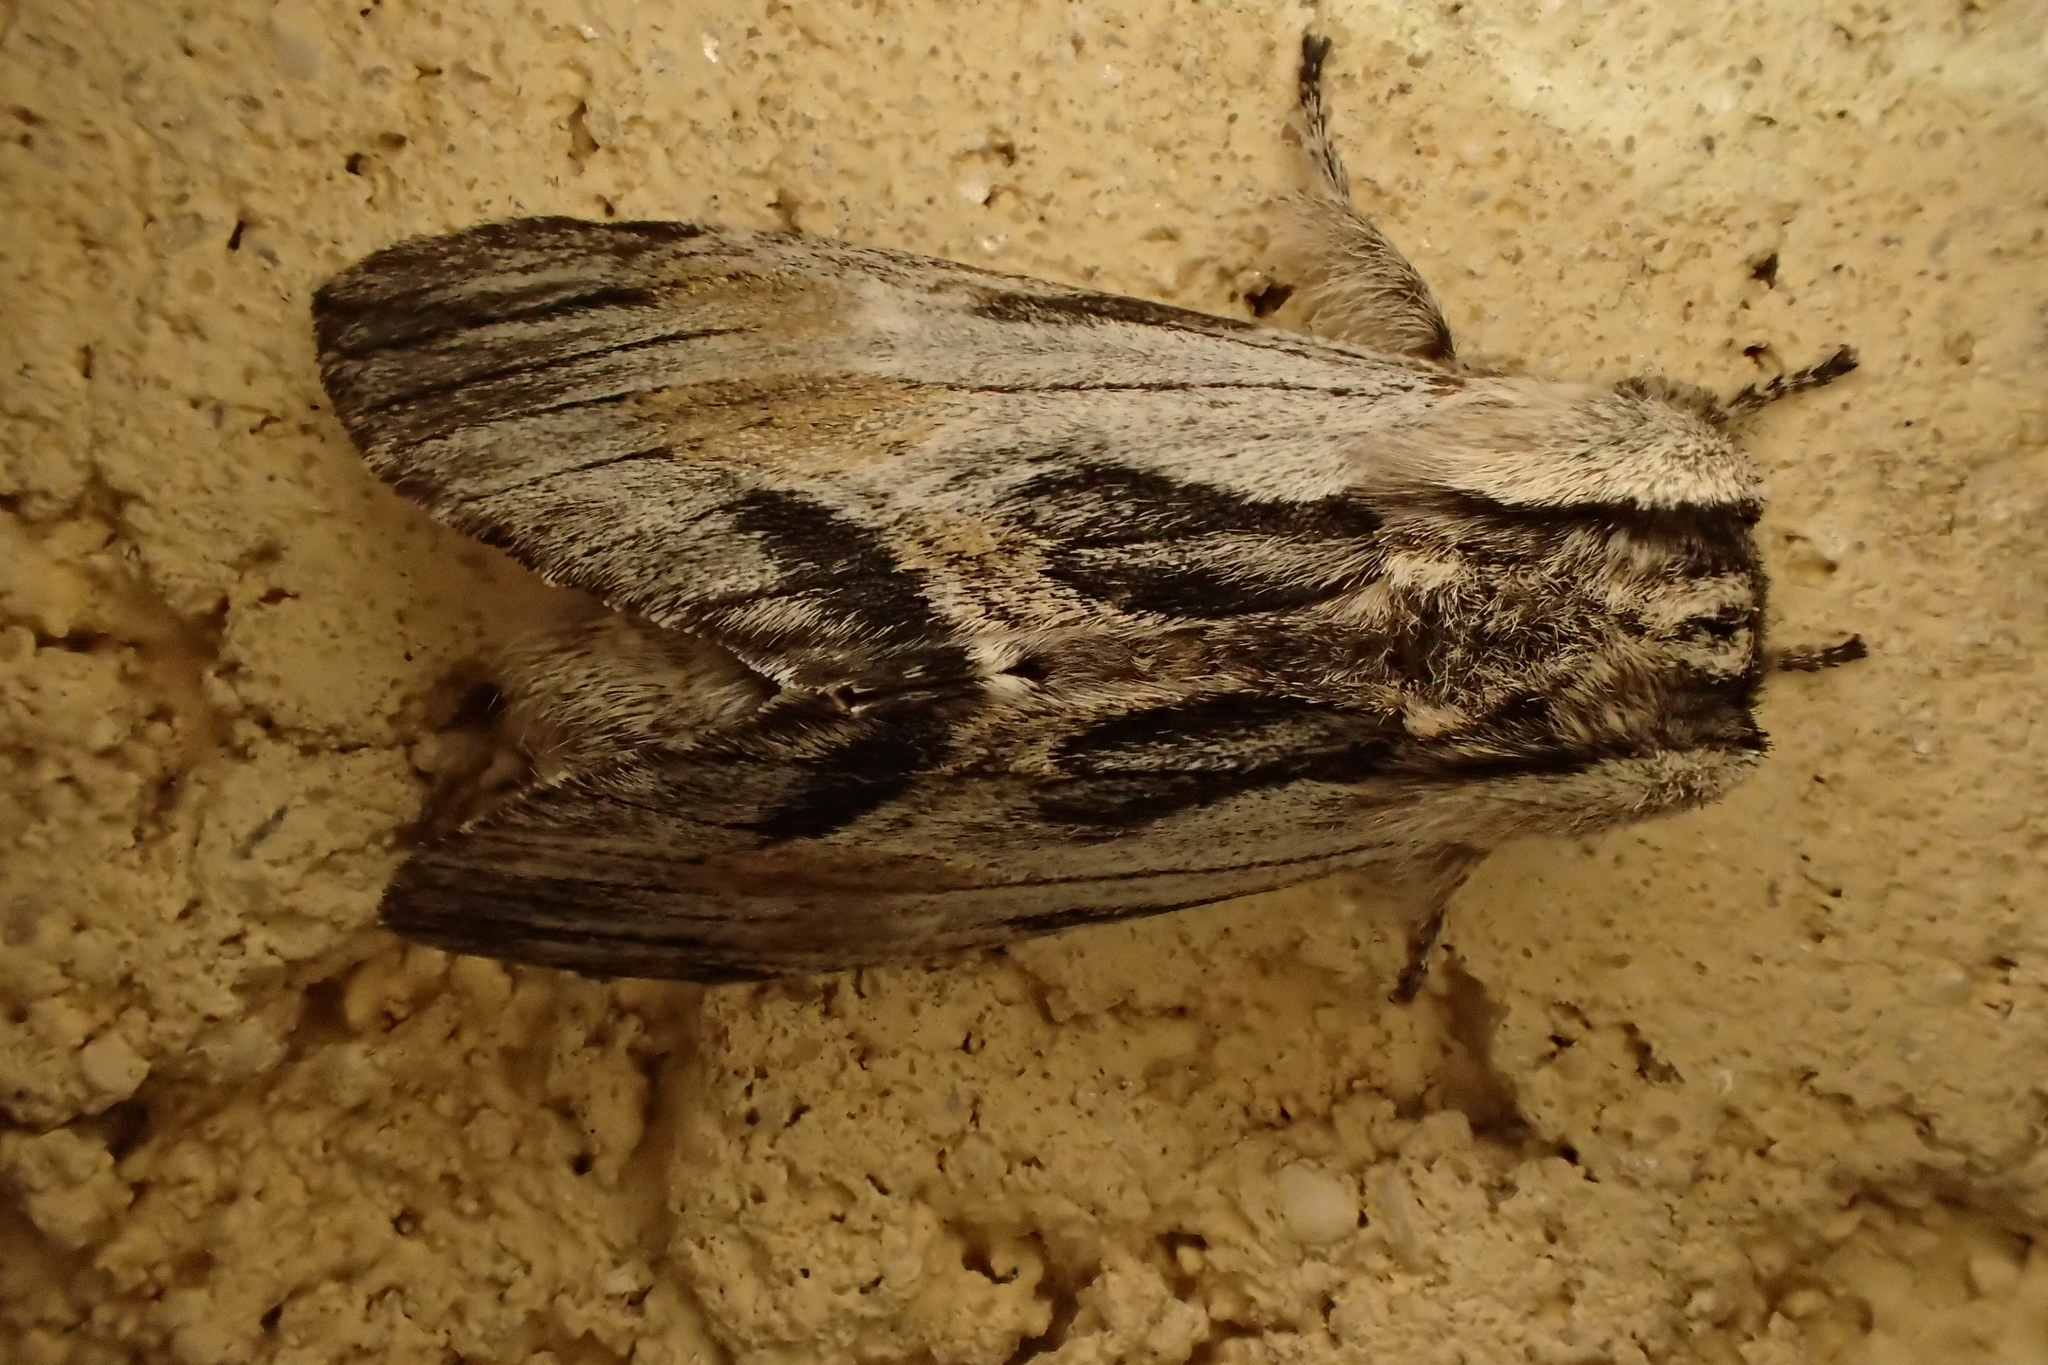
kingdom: Animalia
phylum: Arthropoda
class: Insecta
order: Lepidoptera
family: Notodontidae
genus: Harpyia
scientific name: Harpyia milhauseri
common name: Tawny prominent
